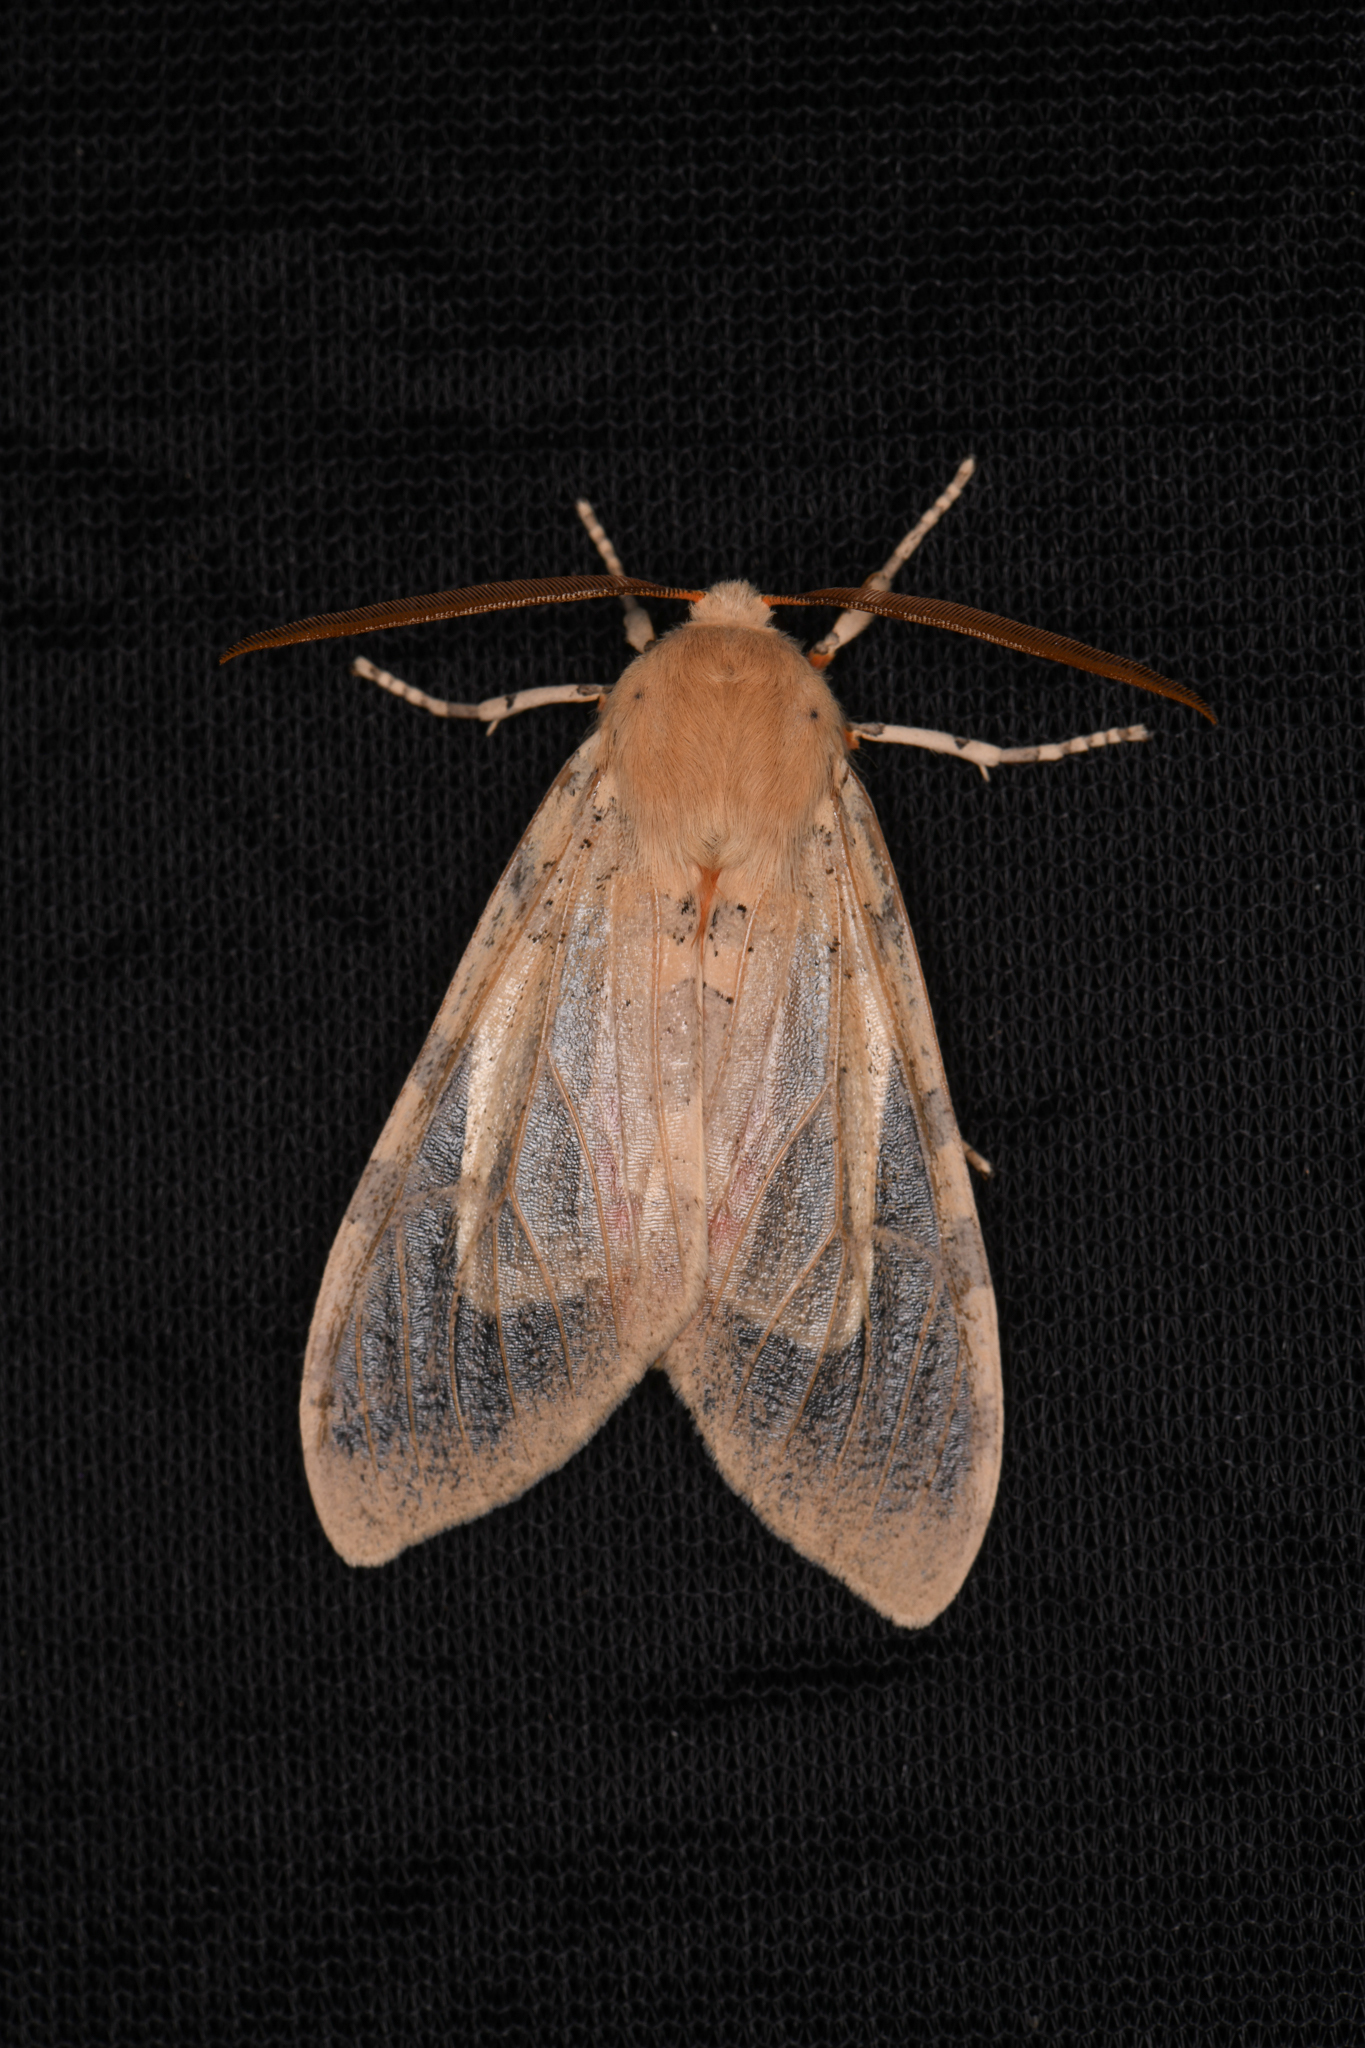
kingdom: Animalia
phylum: Arthropoda
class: Insecta
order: Lepidoptera
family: Erebidae
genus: Hemihyalea
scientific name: Hemihyalea edwardsii
